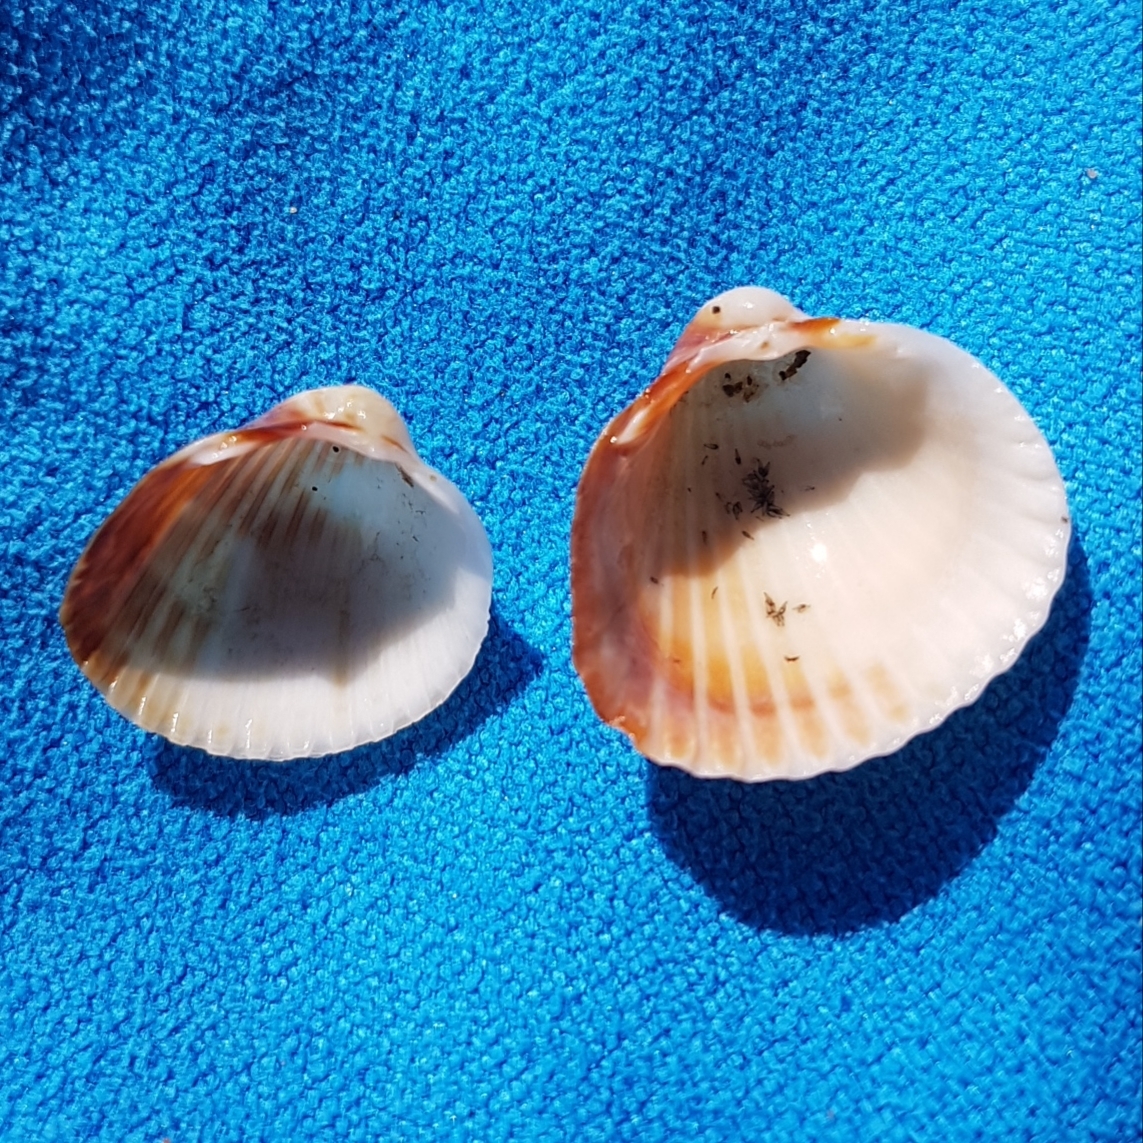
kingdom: Animalia
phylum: Mollusca
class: Bivalvia
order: Cardiida
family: Cardiidae
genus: Cerastoderma
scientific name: Cerastoderma glaucum
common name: Lagoon cockle
